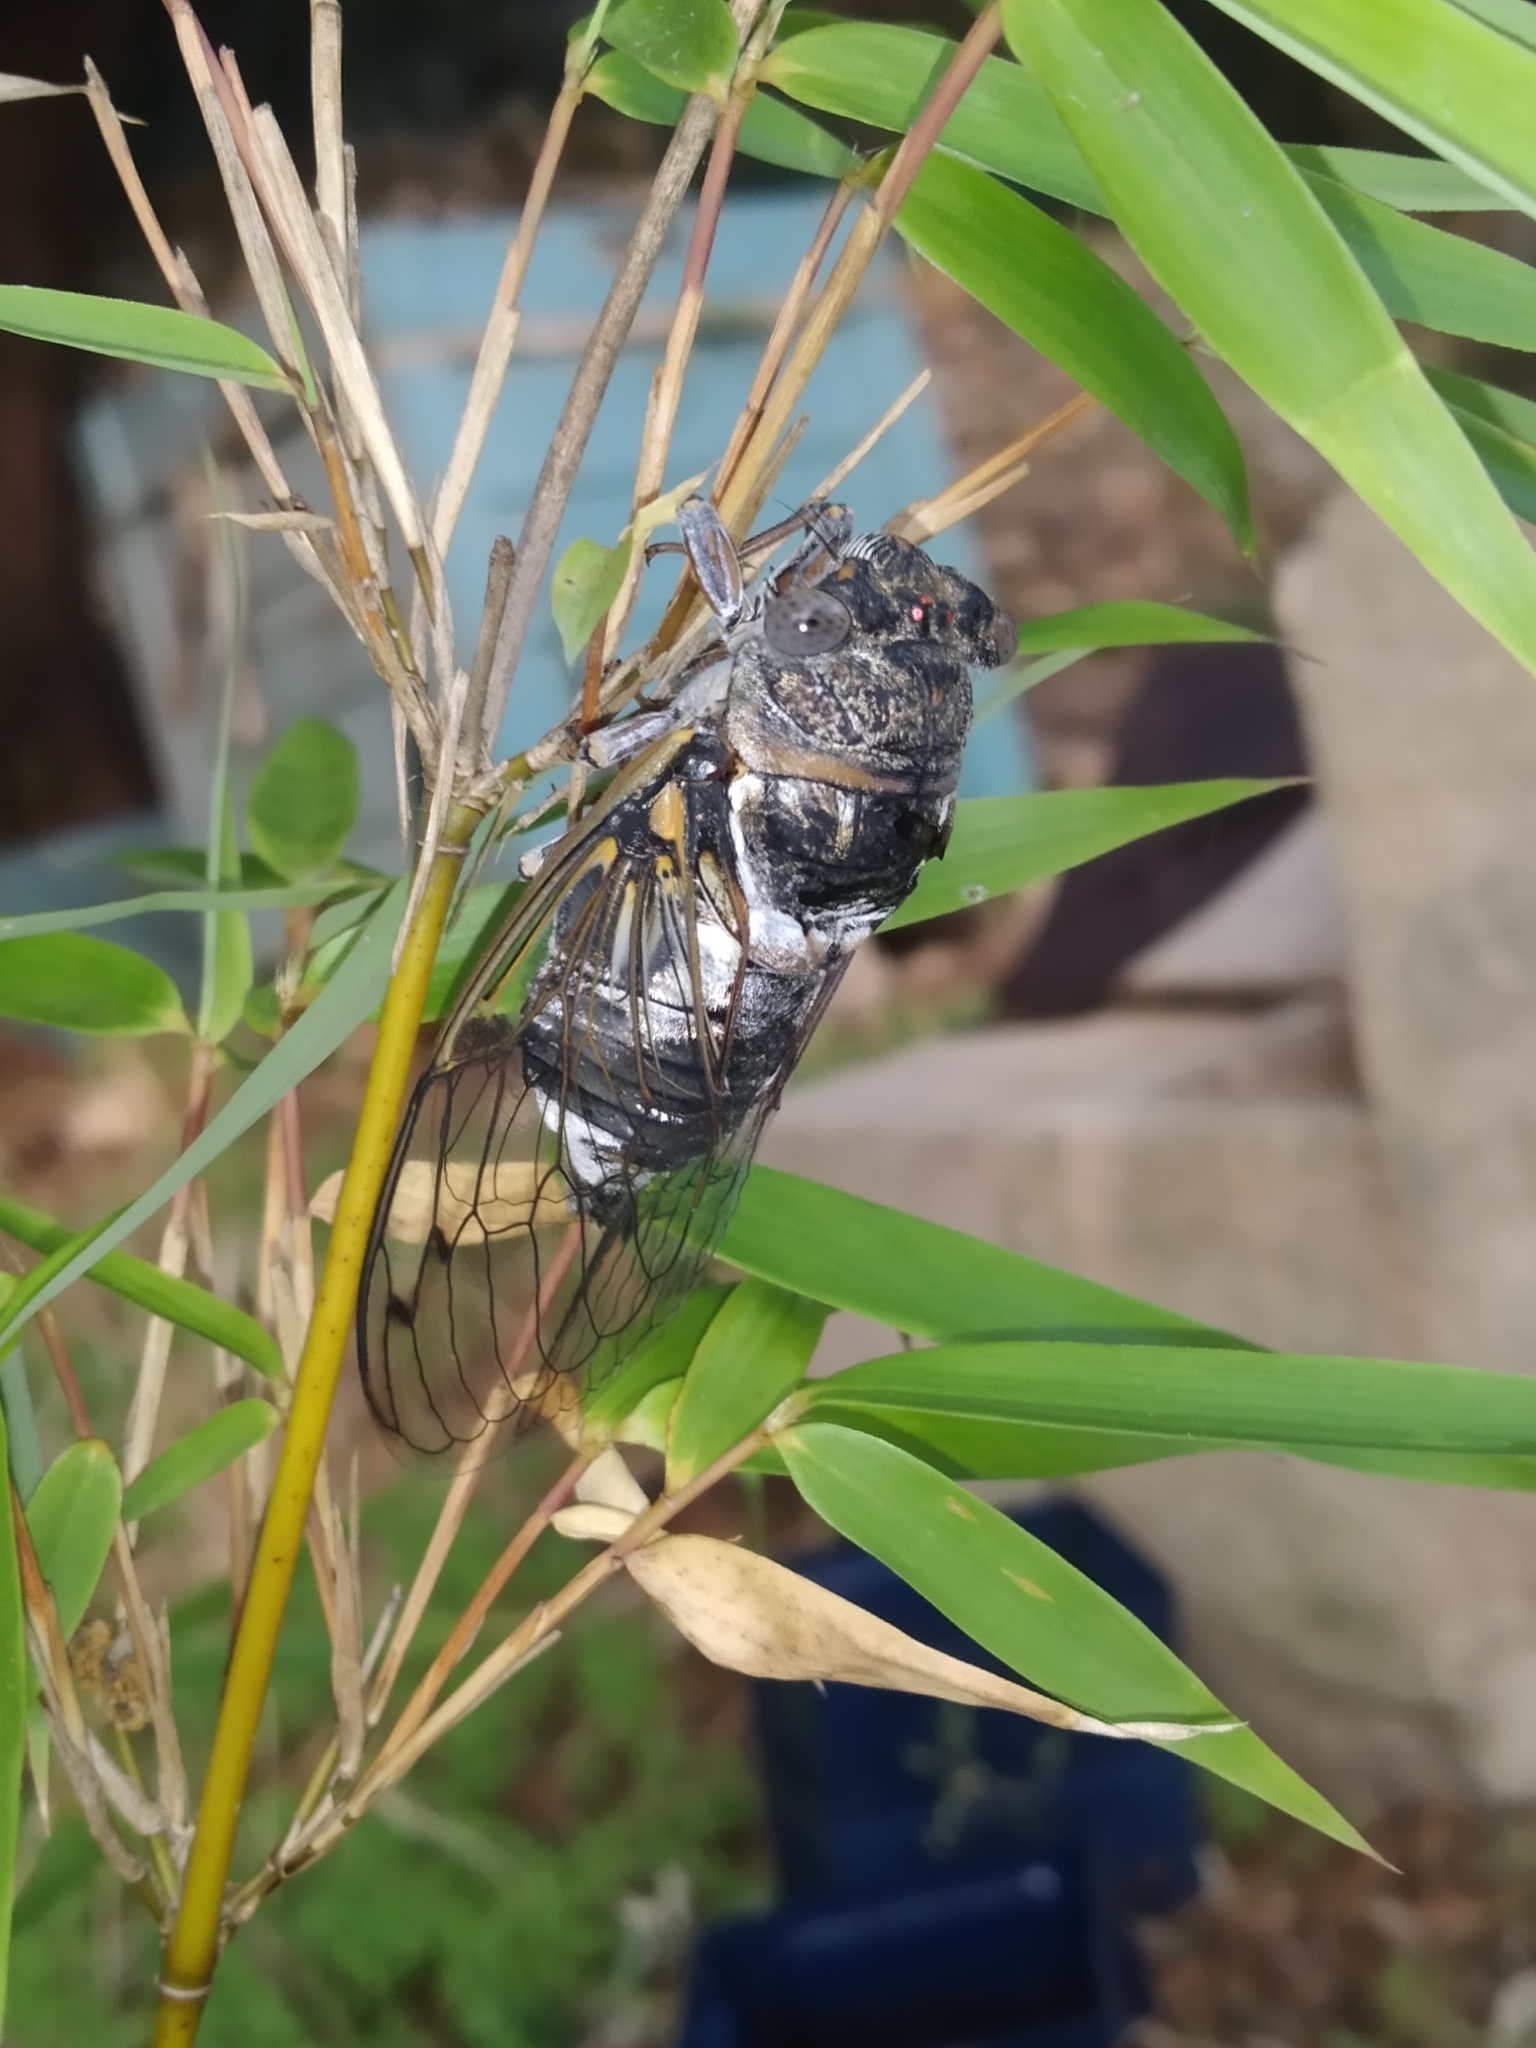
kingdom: Animalia
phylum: Arthropoda
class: Insecta
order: Hemiptera
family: Cicadidae
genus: Lyristes
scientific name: Lyristes plebejus
